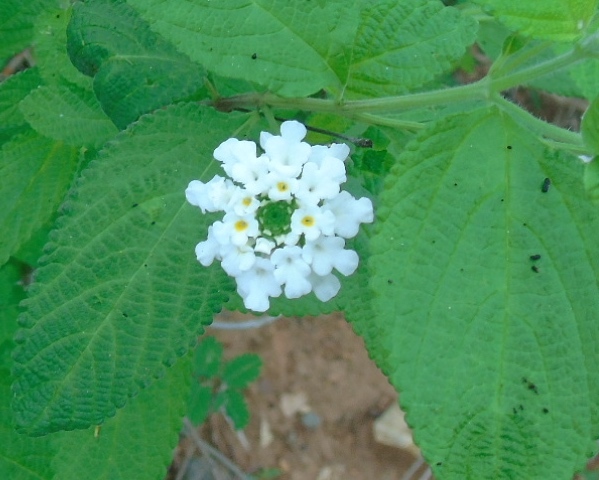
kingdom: Plantae
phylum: Tracheophyta
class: Magnoliopsida
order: Lamiales
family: Verbenaceae
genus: Lantana
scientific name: Lantana velutina
